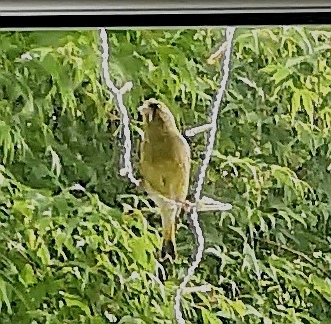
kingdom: Plantae
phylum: Tracheophyta
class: Liliopsida
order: Poales
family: Poaceae
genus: Chloris
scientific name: Chloris chloris
